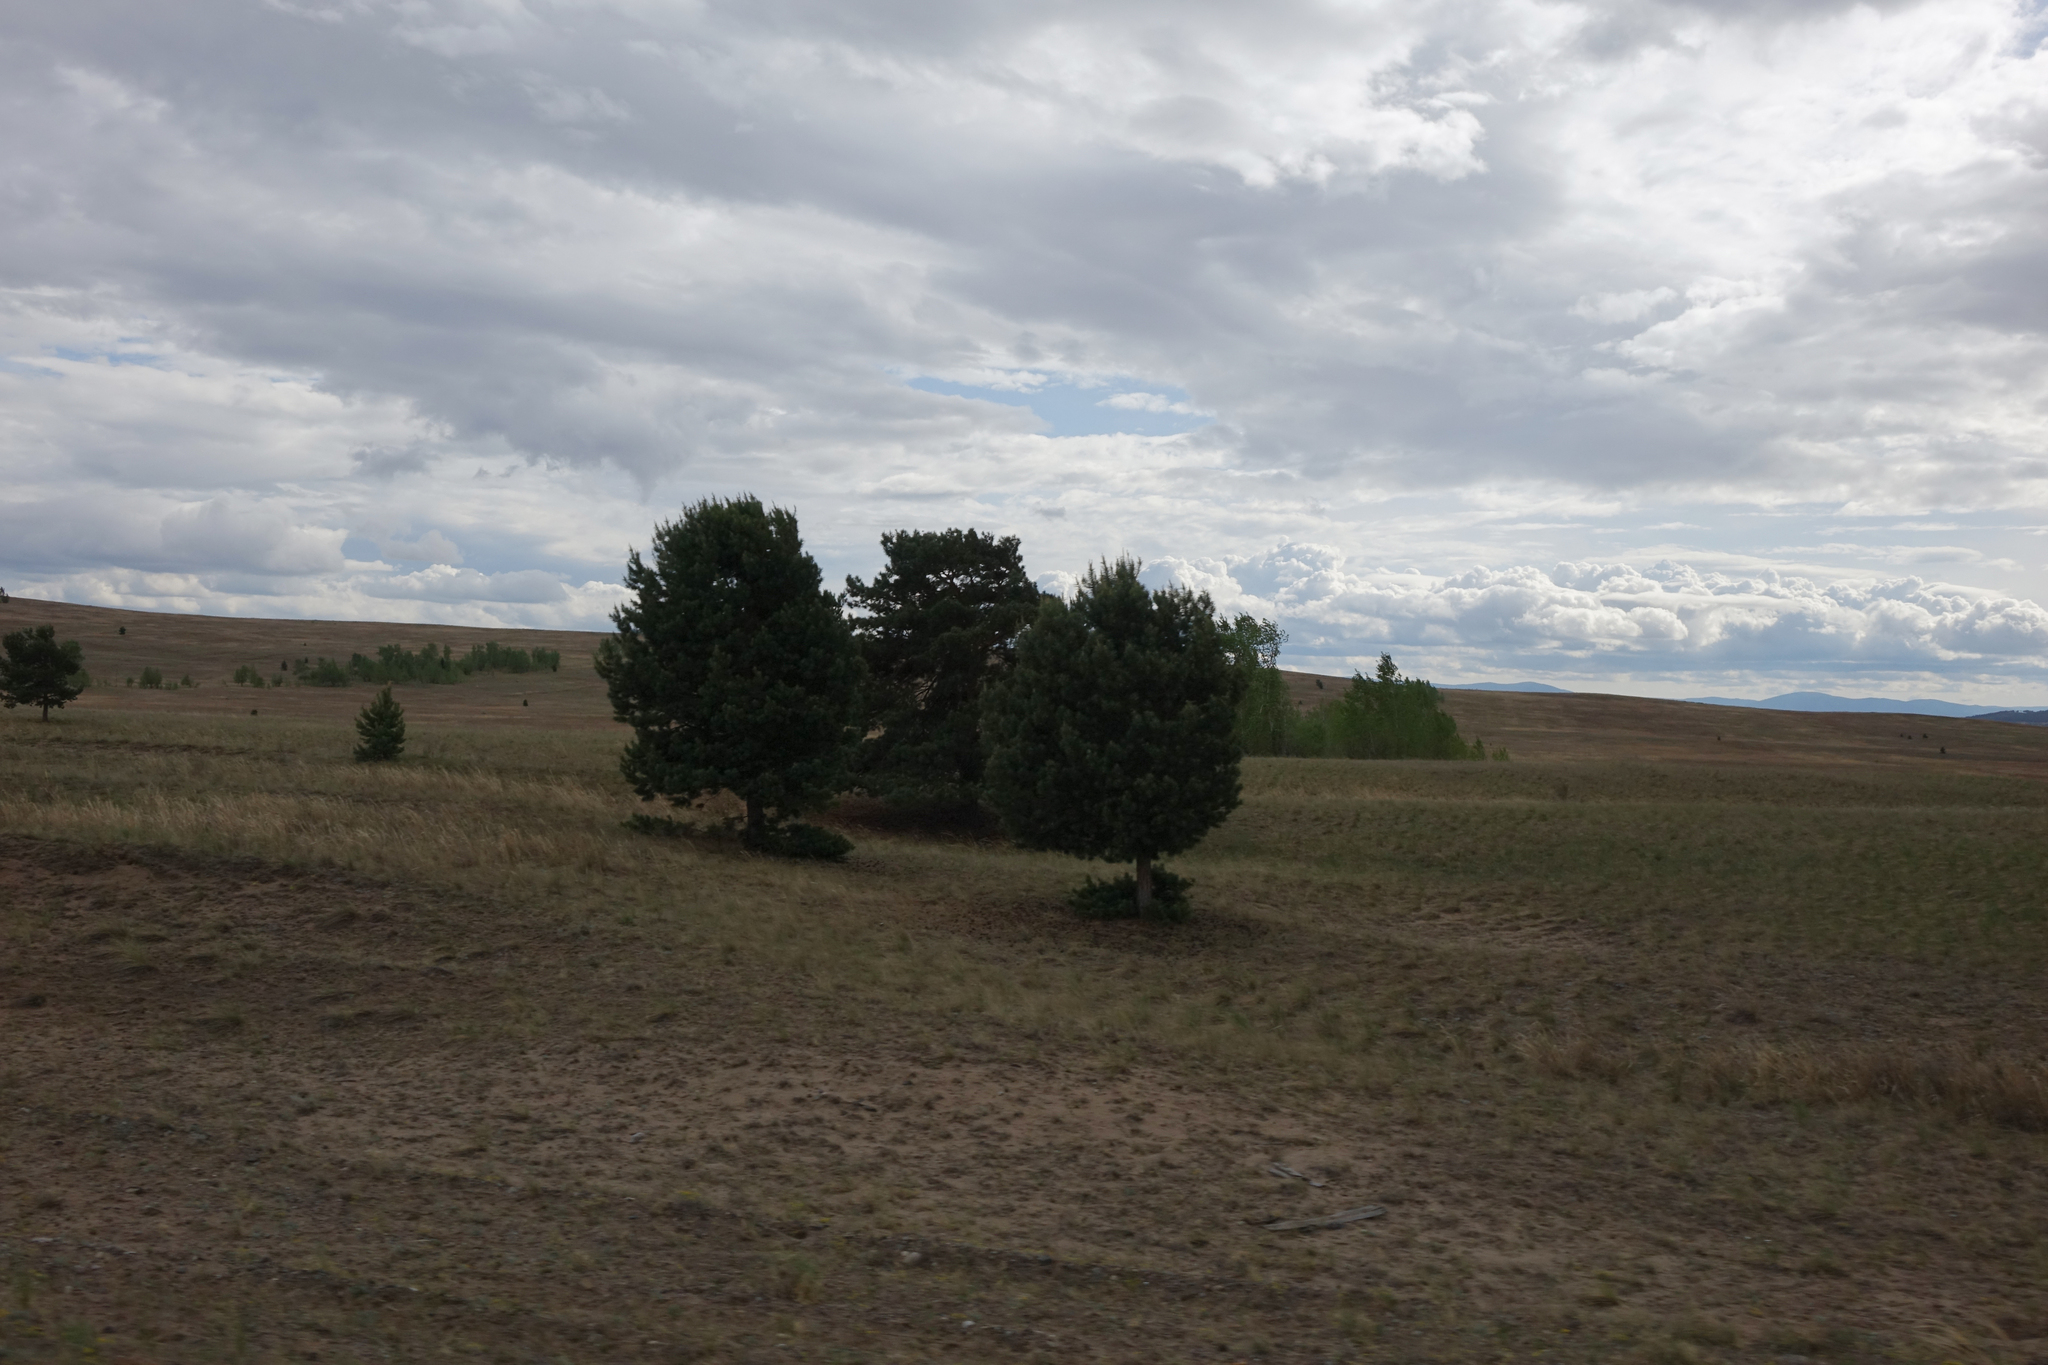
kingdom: Plantae
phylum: Tracheophyta
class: Pinopsida
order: Pinales
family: Pinaceae
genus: Pinus
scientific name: Pinus sylvestris
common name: Scots pine
